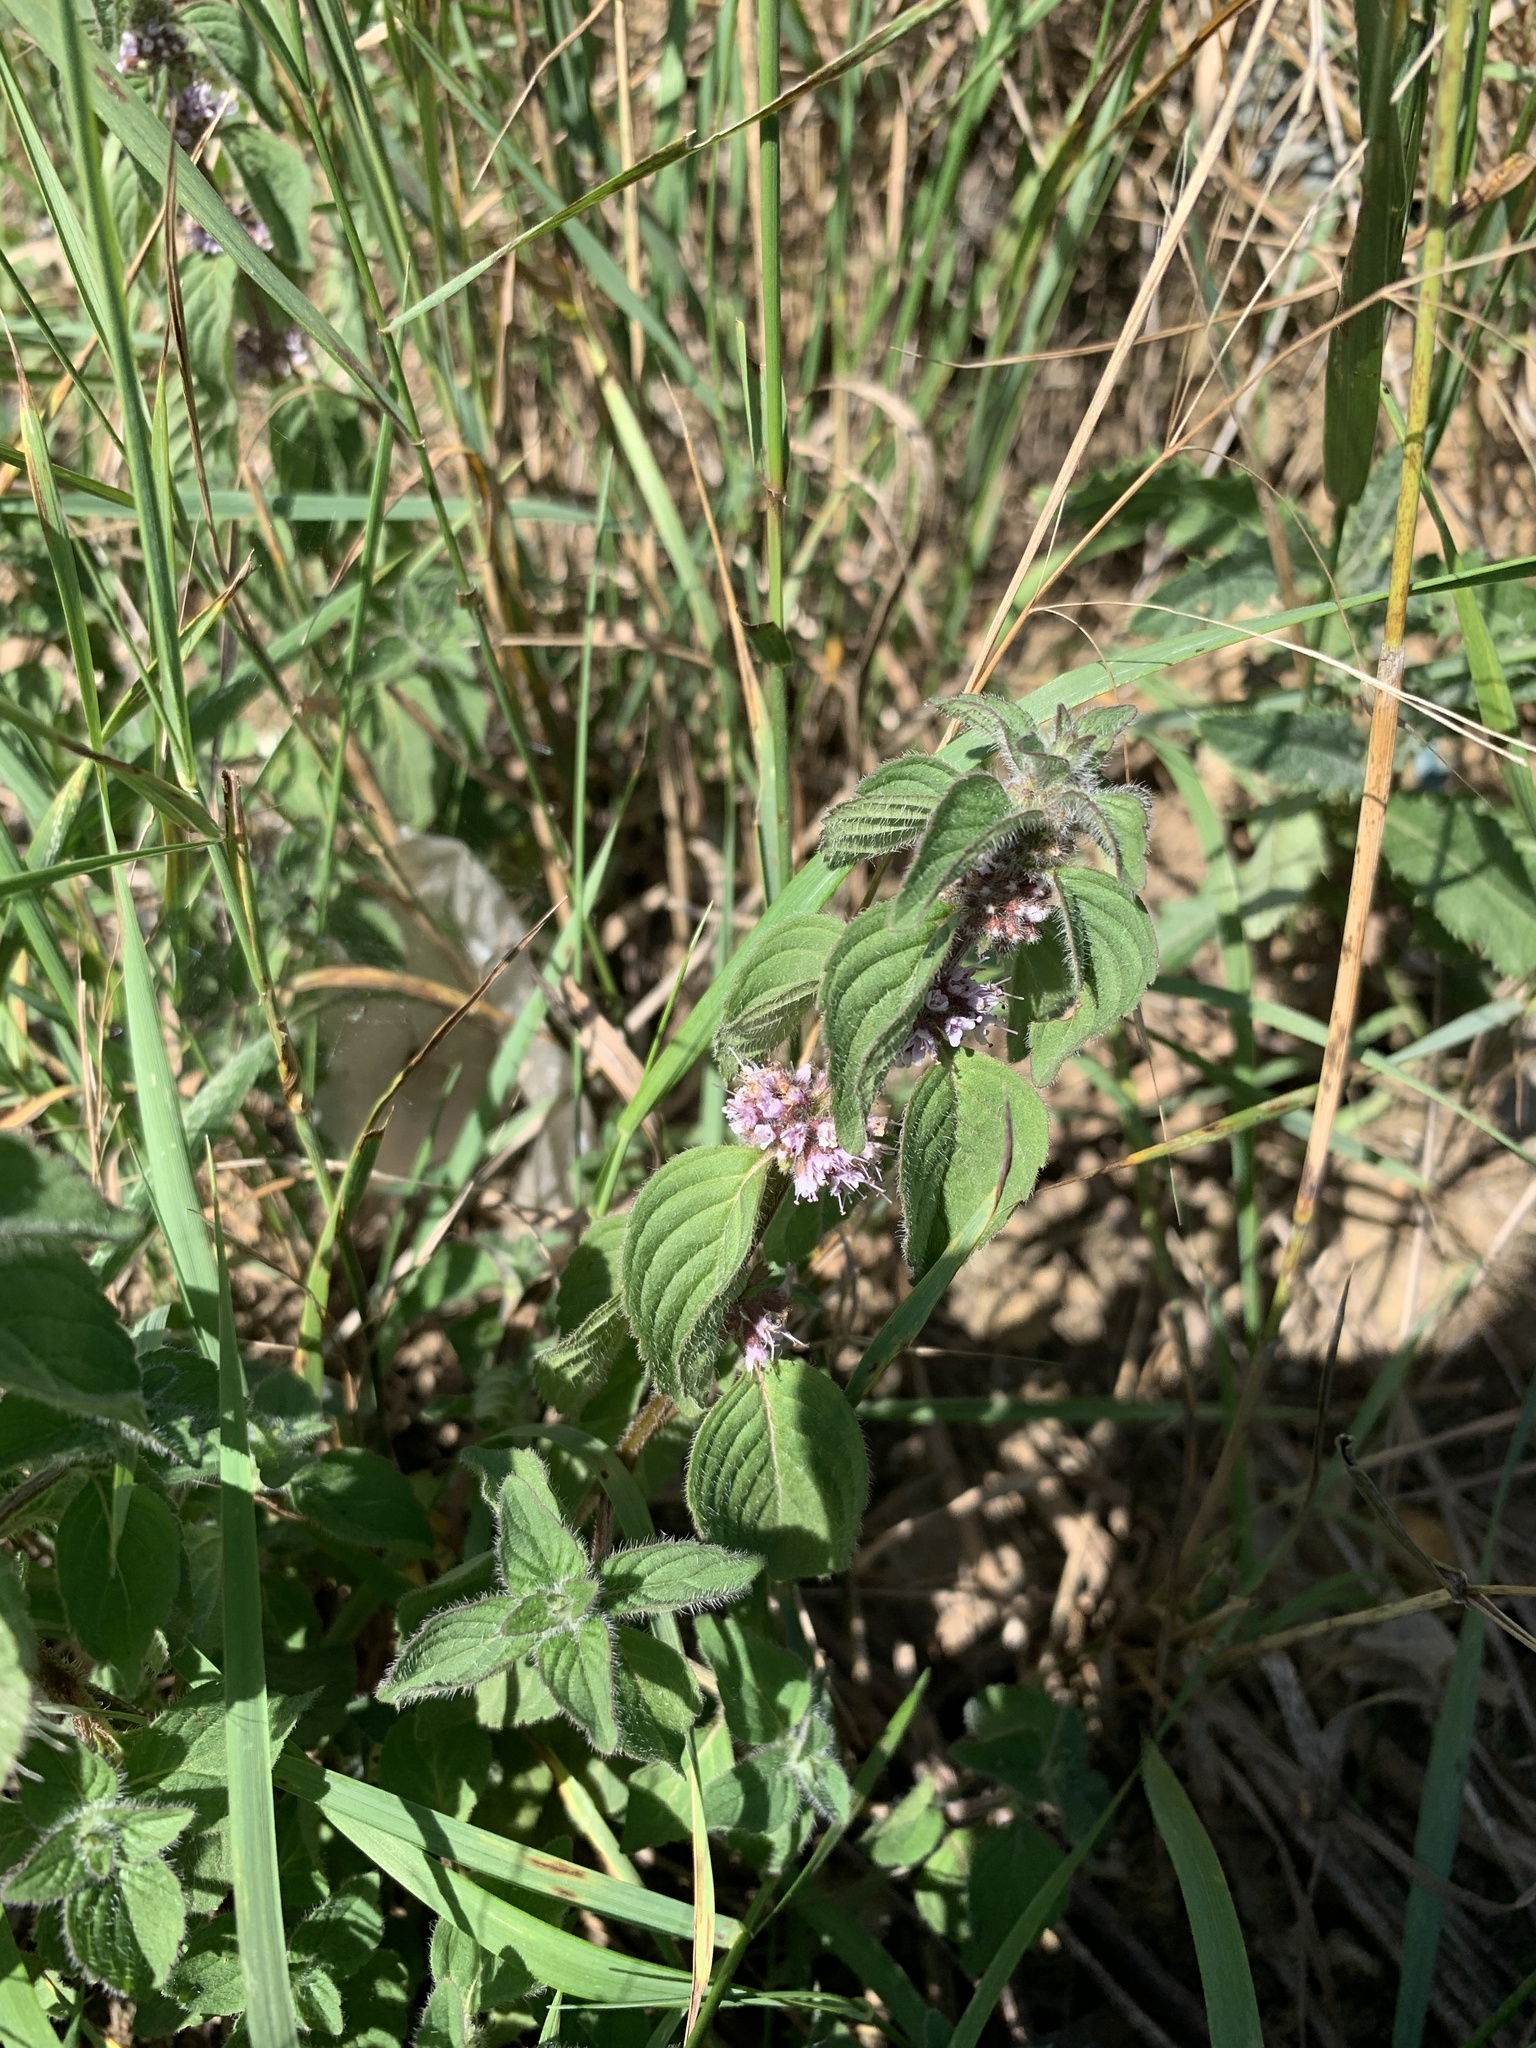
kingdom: Plantae
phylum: Tracheophyta
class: Magnoliopsida
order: Lamiales
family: Lamiaceae
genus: Mentha
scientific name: Mentha arvensis
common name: Corn mint
